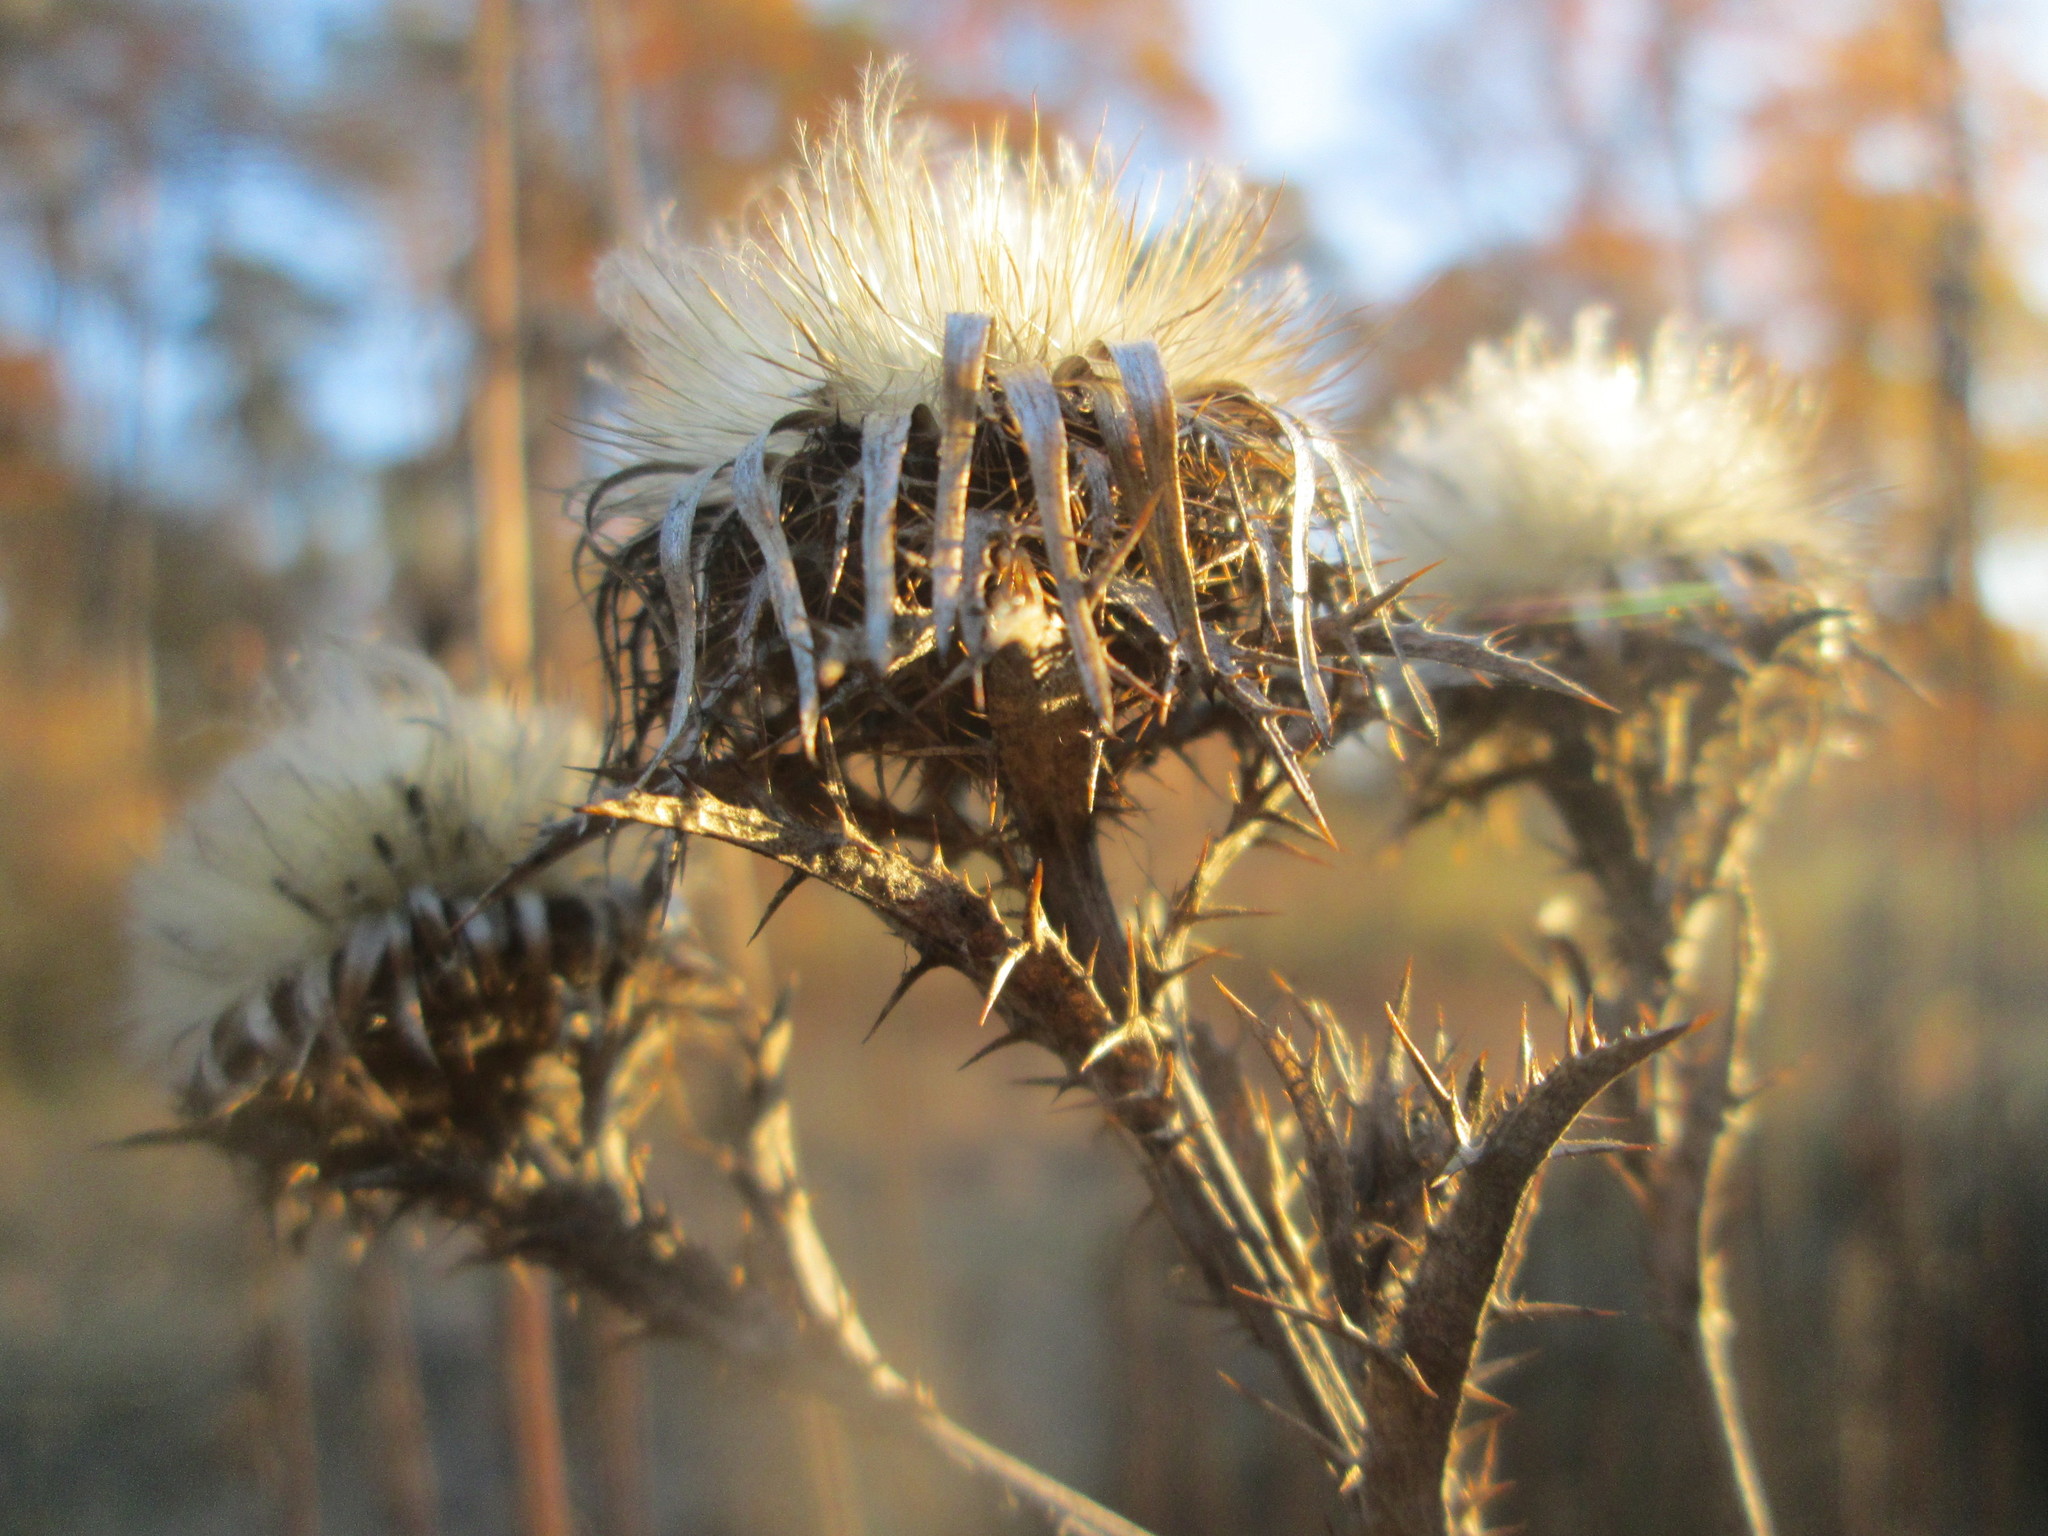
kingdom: Plantae
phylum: Tracheophyta
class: Magnoliopsida
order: Asterales
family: Asteraceae
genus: Carlina
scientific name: Carlina vulgaris
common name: Carline thistle
